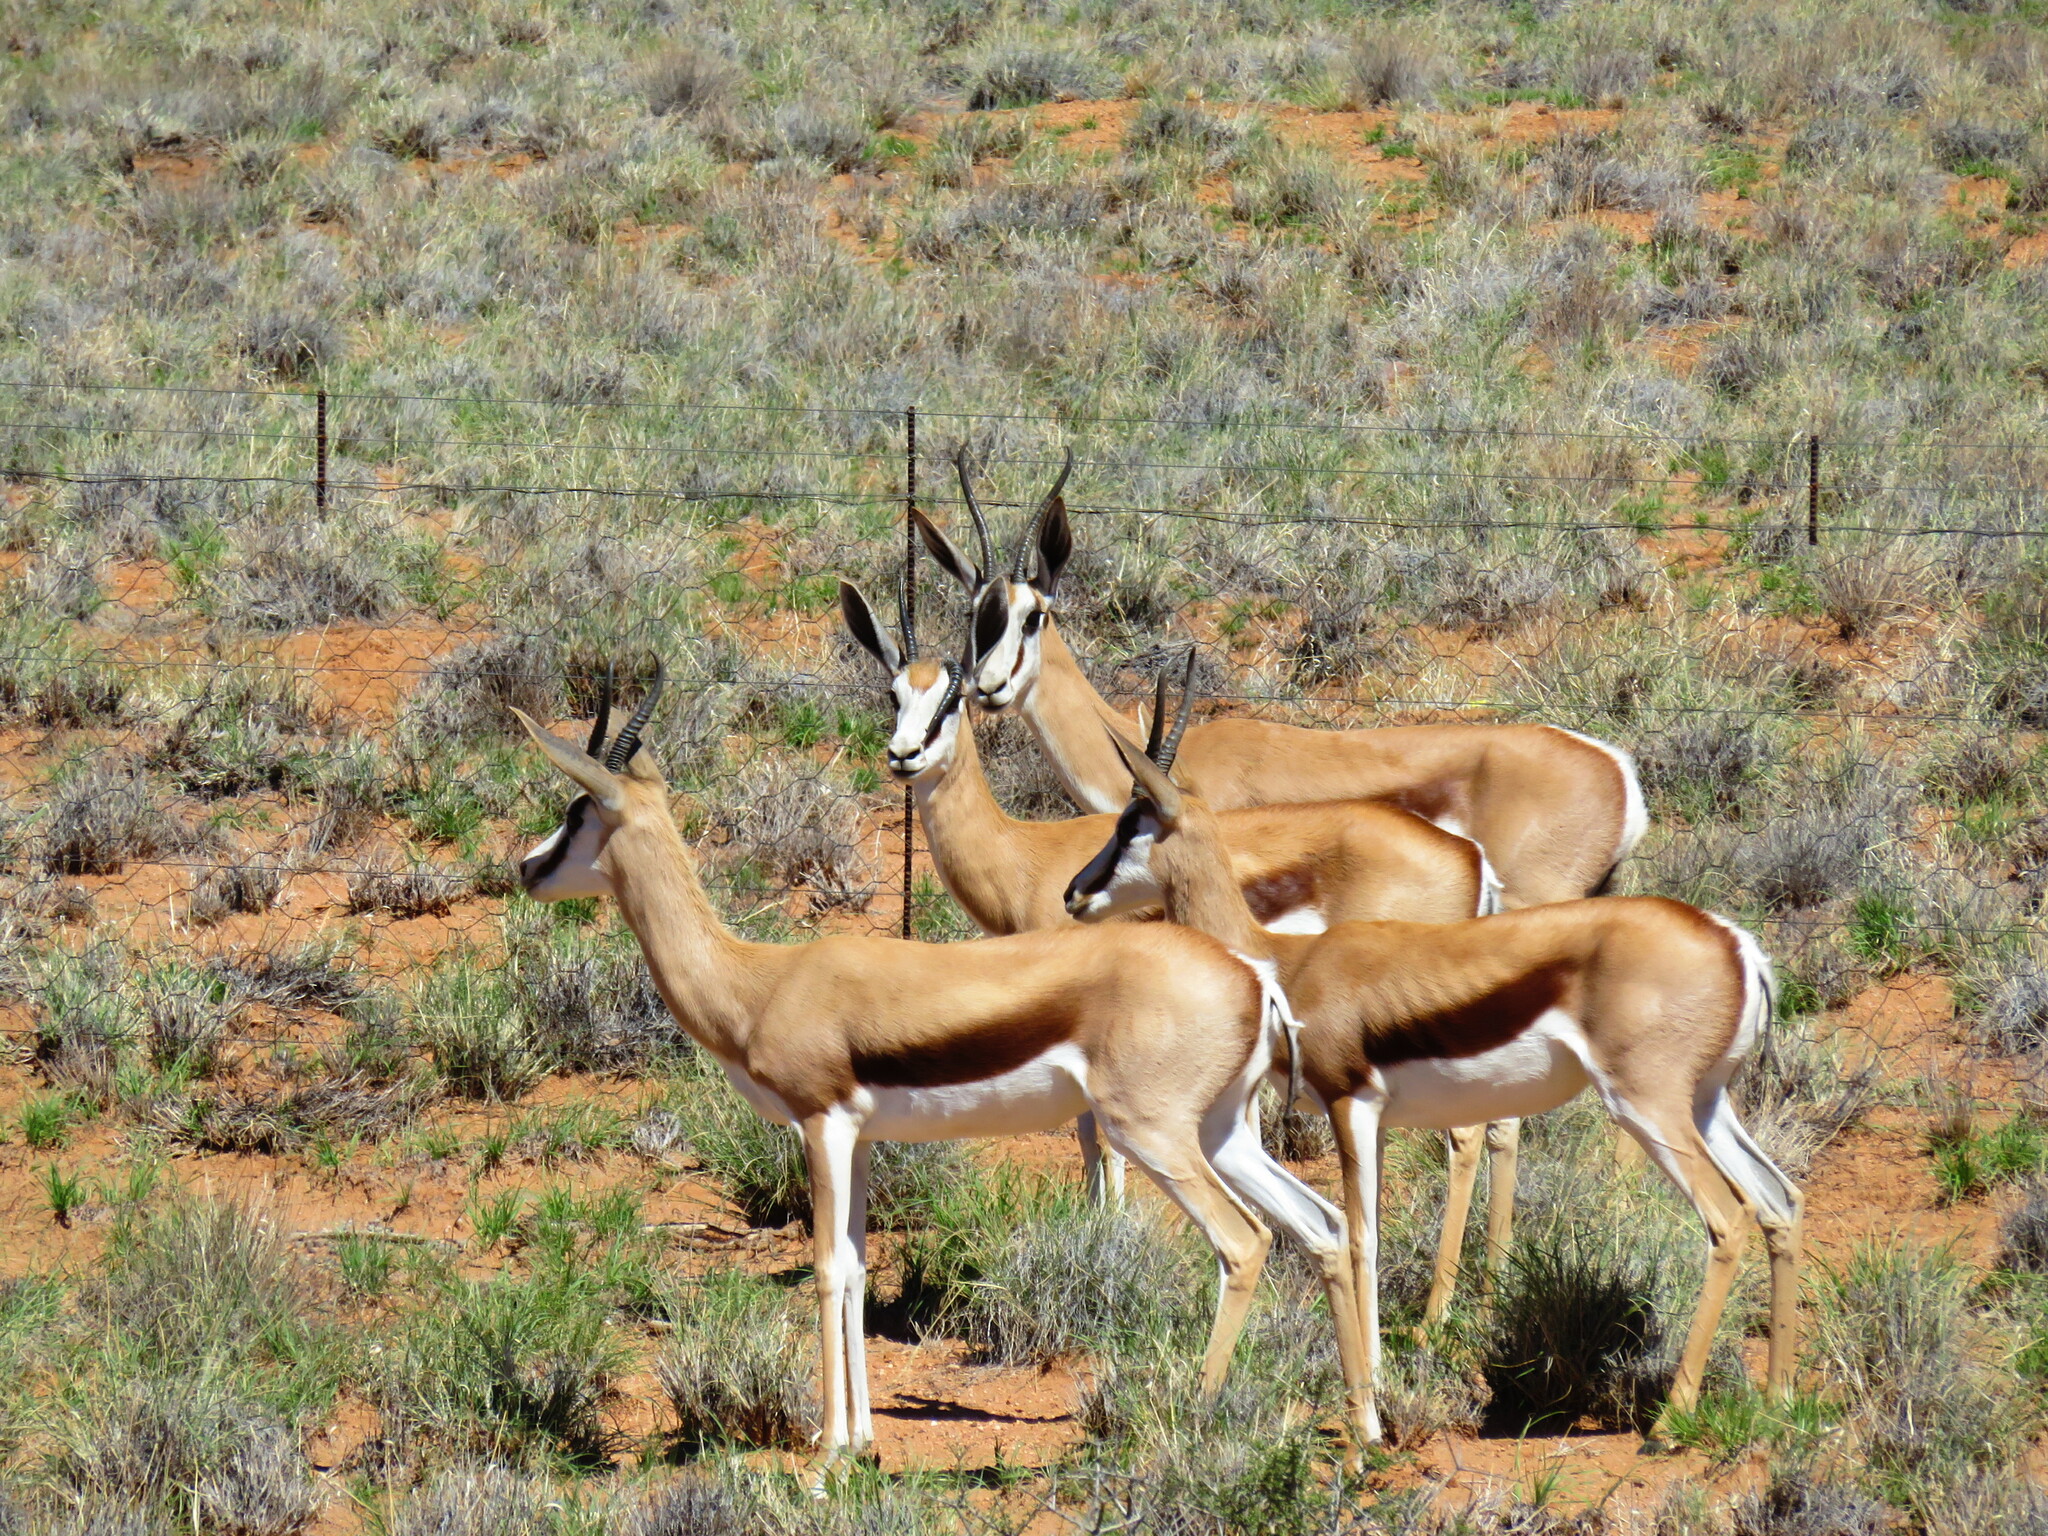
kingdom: Animalia
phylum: Chordata
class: Mammalia
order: Artiodactyla
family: Bovidae
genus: Antidorcas
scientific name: Antidorcas marsupialis
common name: Springbok
